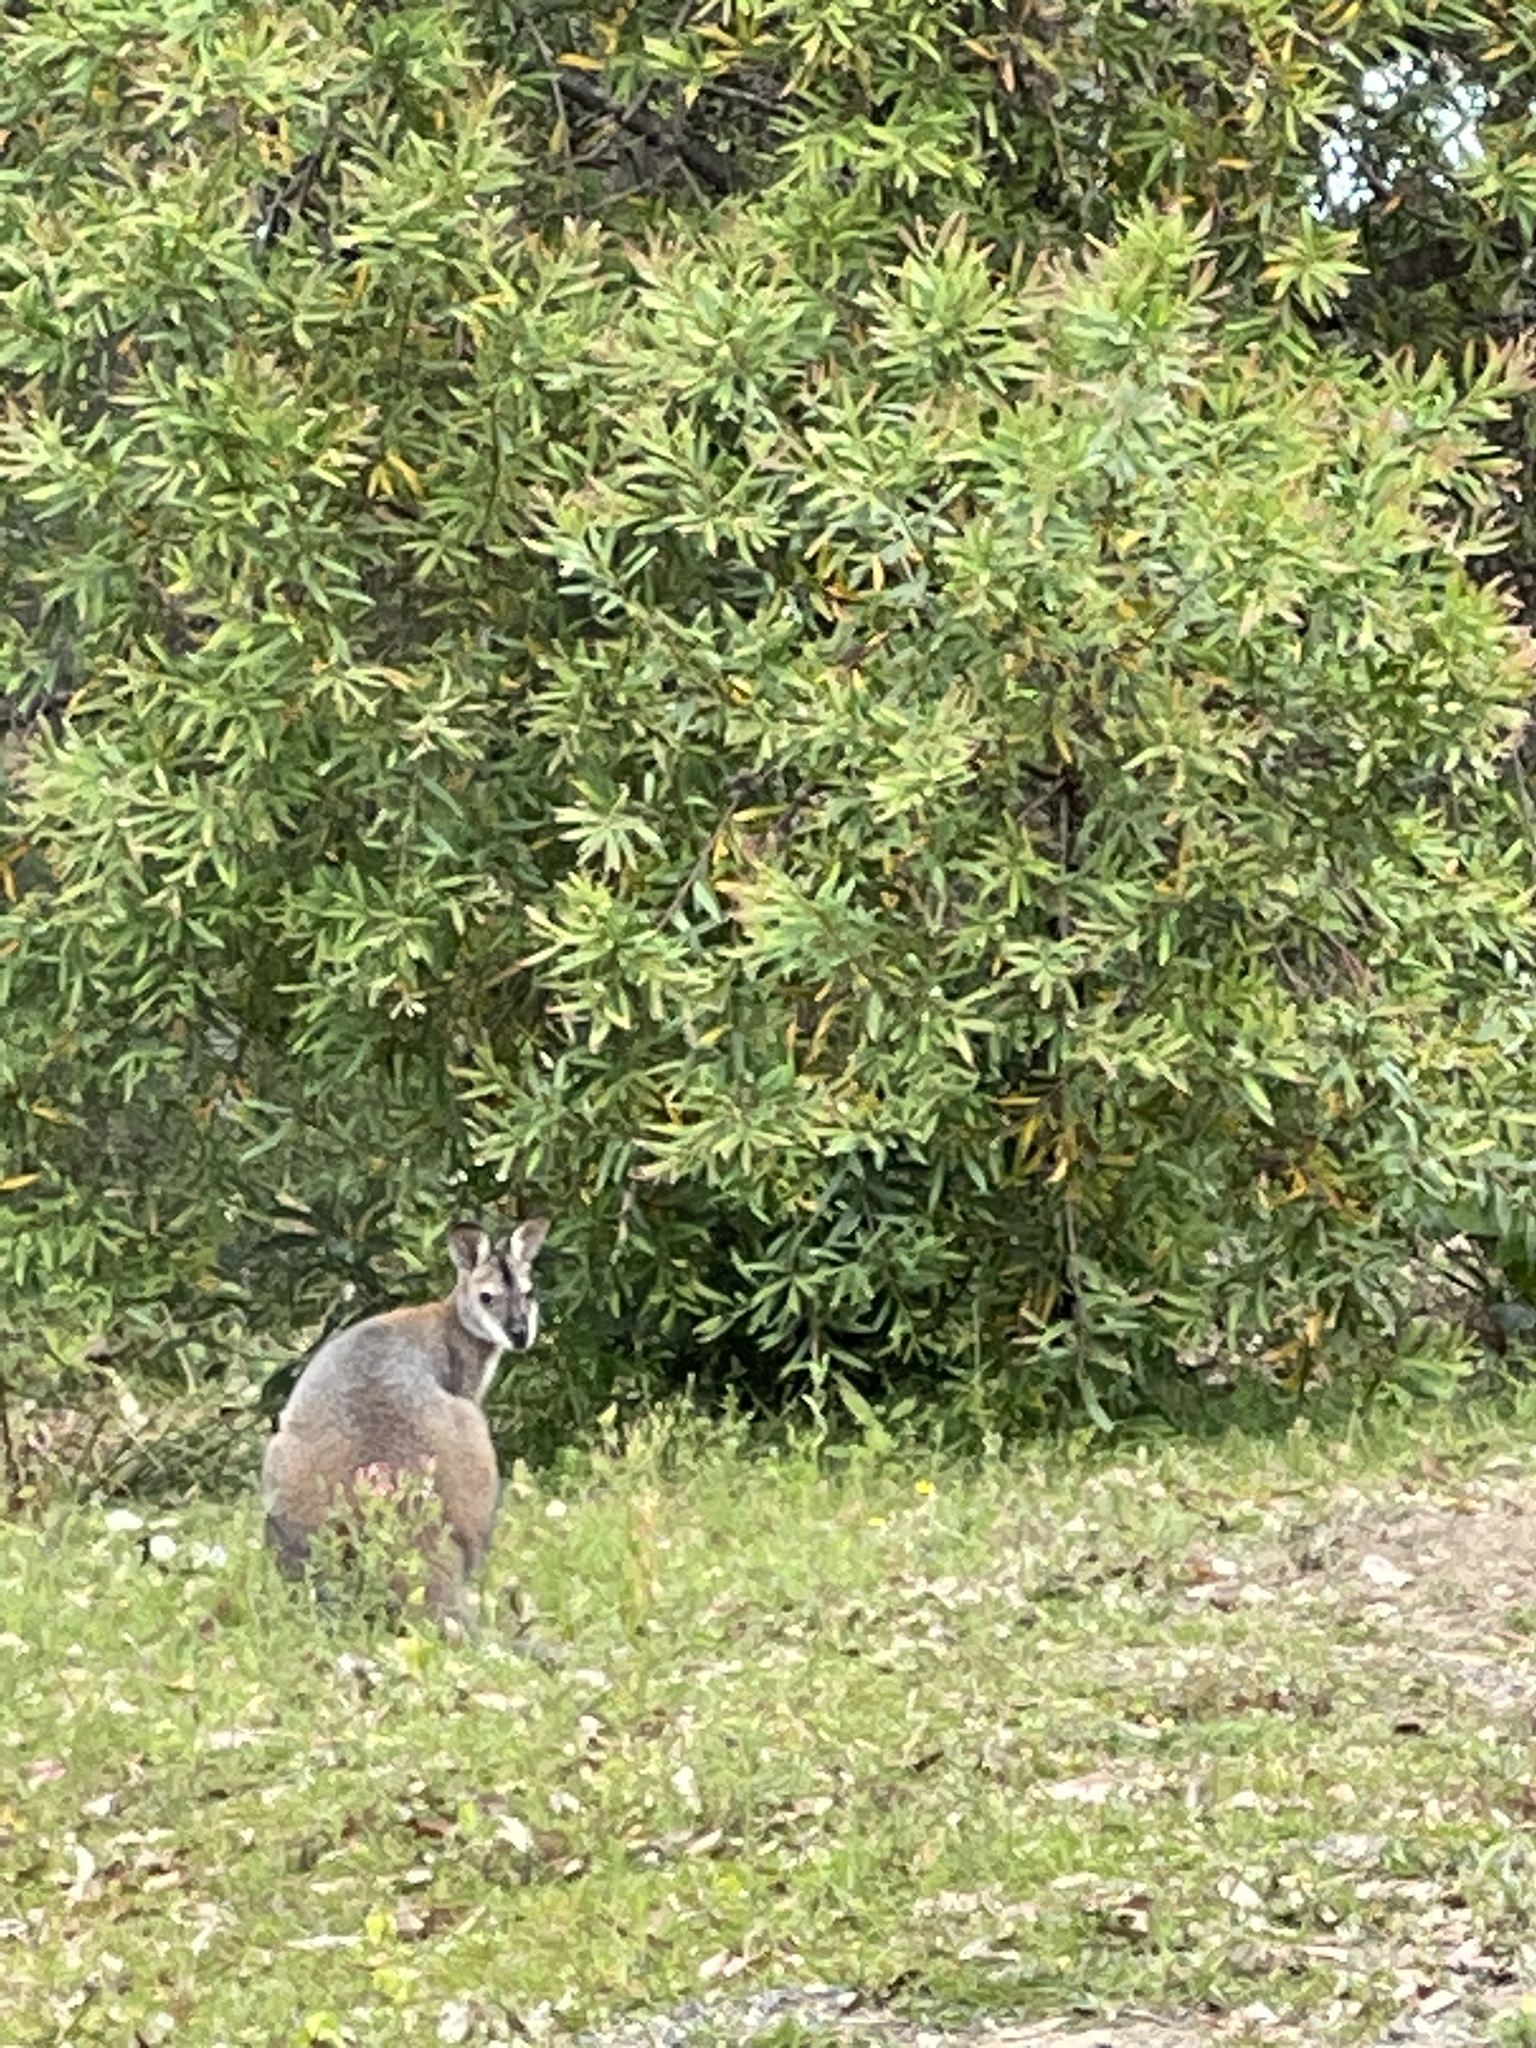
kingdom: Animalia
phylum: Chordata
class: Mammalia
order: Diprotodontia
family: Macropodidae
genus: Wallabia
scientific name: Wallabia bicolor
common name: Swamp wallaby
